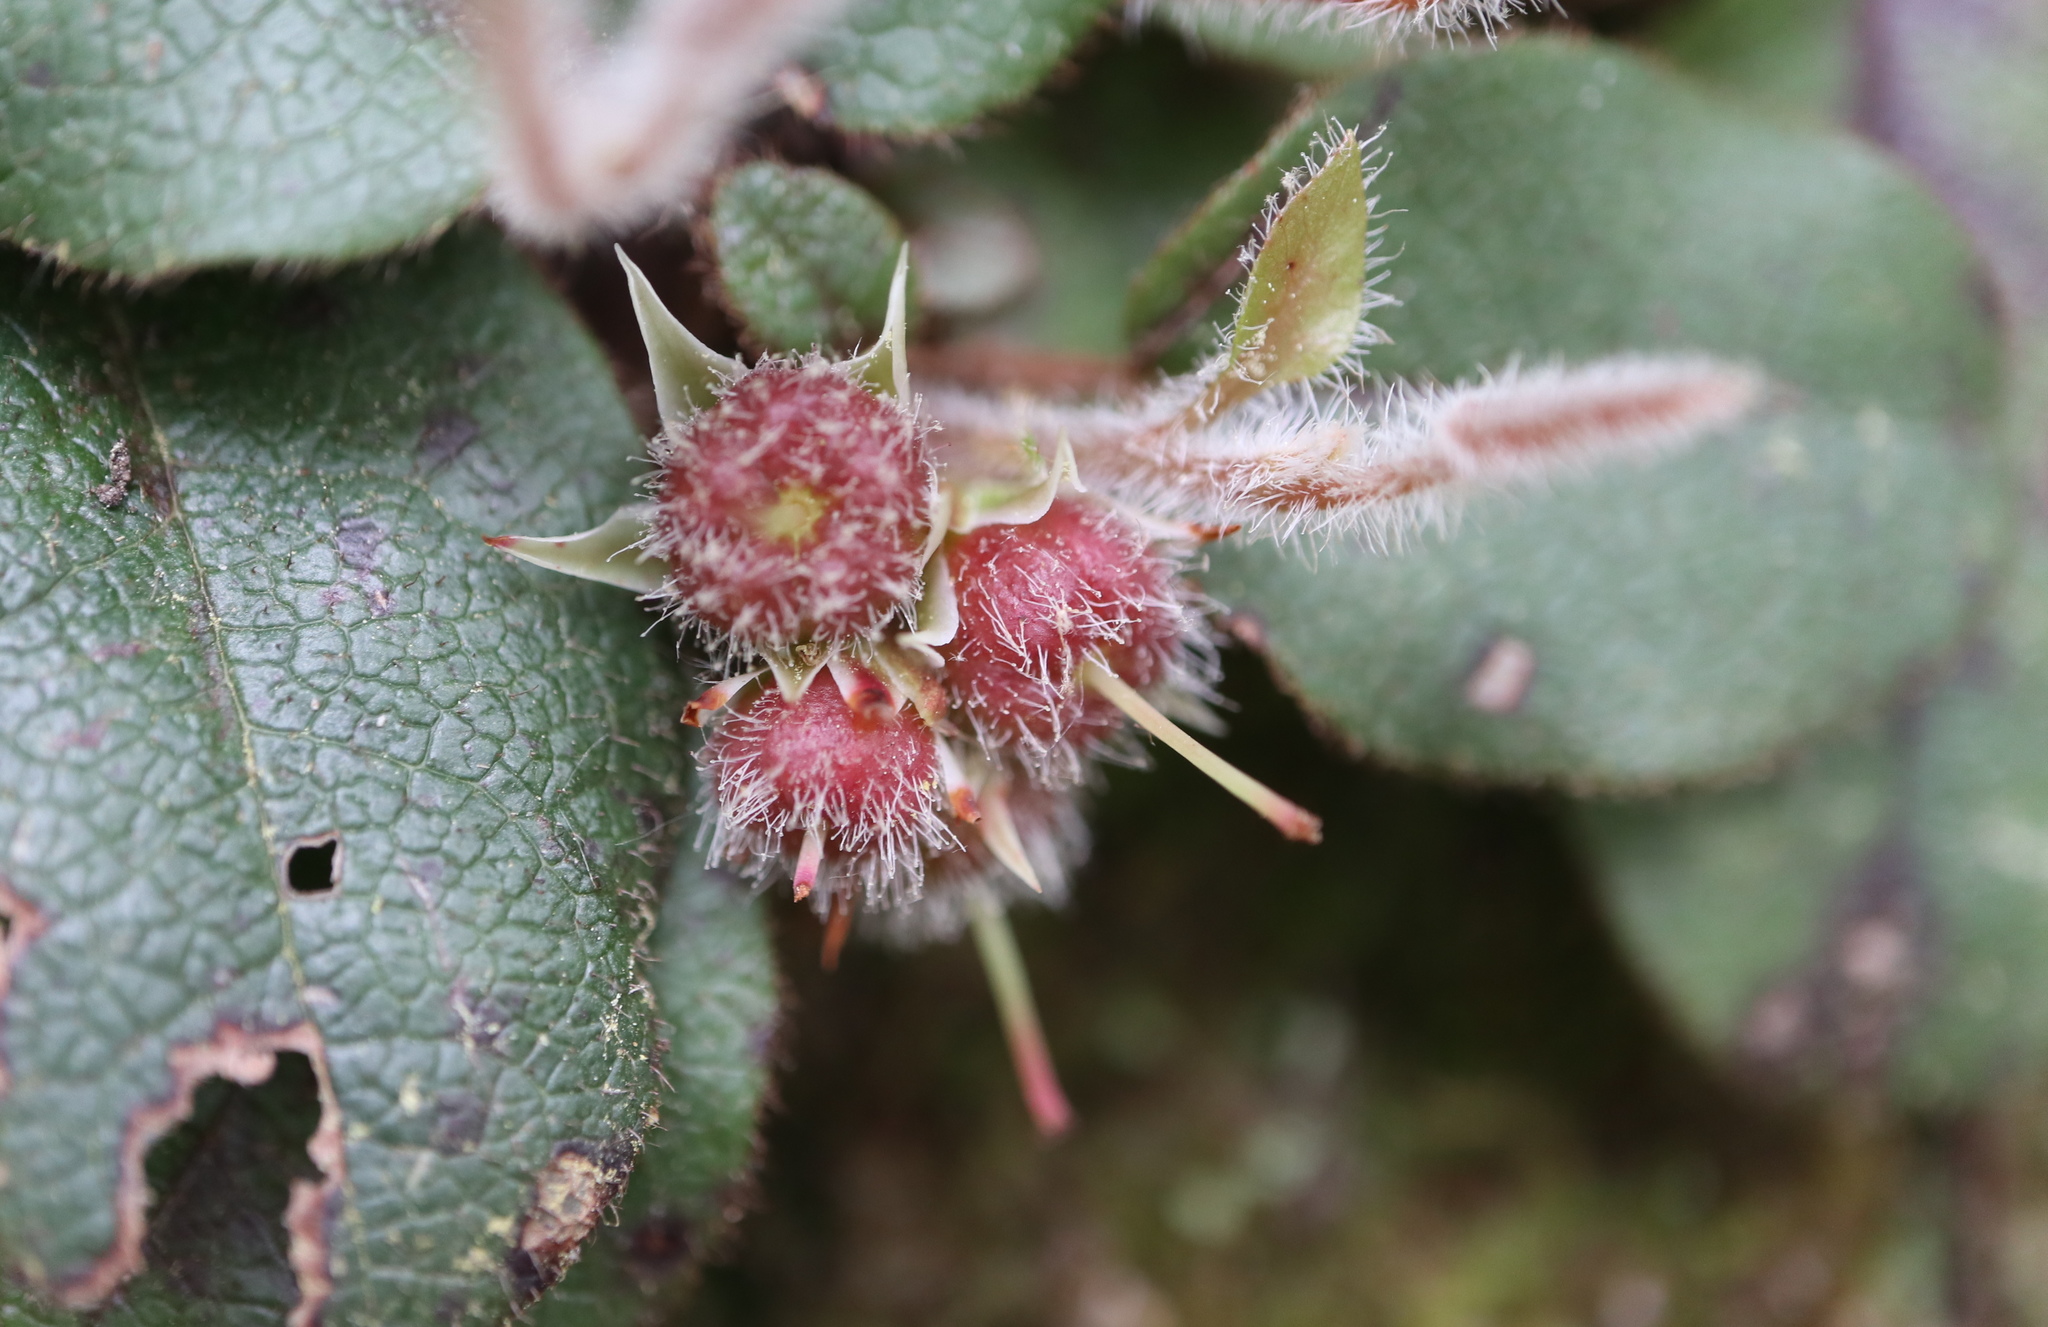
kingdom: Plantae
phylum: Tracheophyta
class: Magnoliopsida
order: Ericales
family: Ericaceae
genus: Epigaea
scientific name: Epigaea repens
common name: Gravelroot
